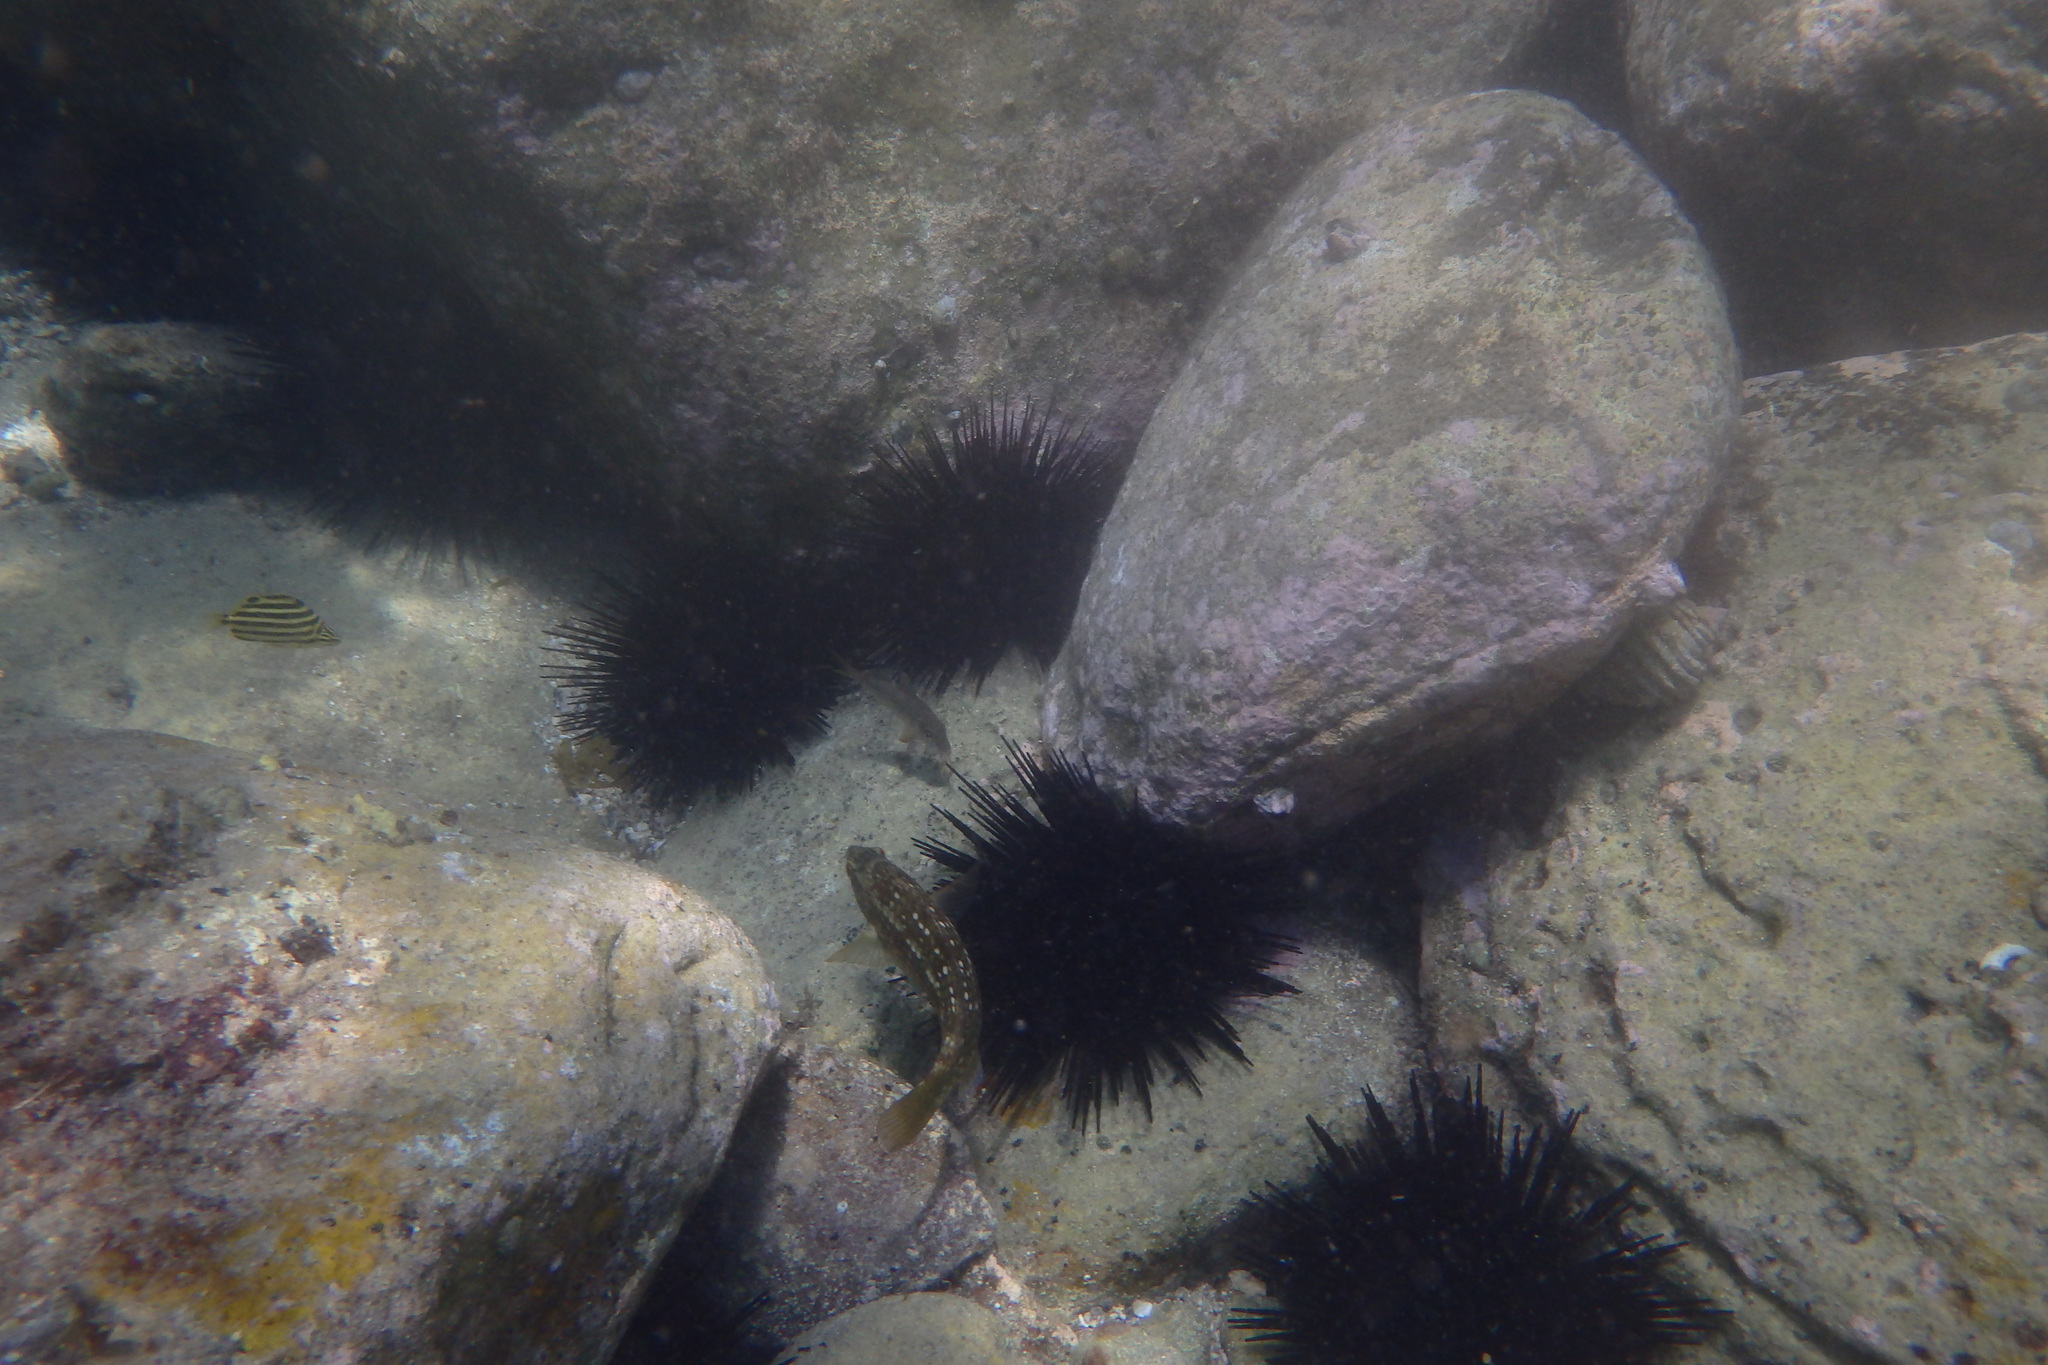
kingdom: Animalia
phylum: Chordata
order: Perciformes
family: Kyphosidae
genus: Microcanthus
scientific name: Microcanthus joyceae
